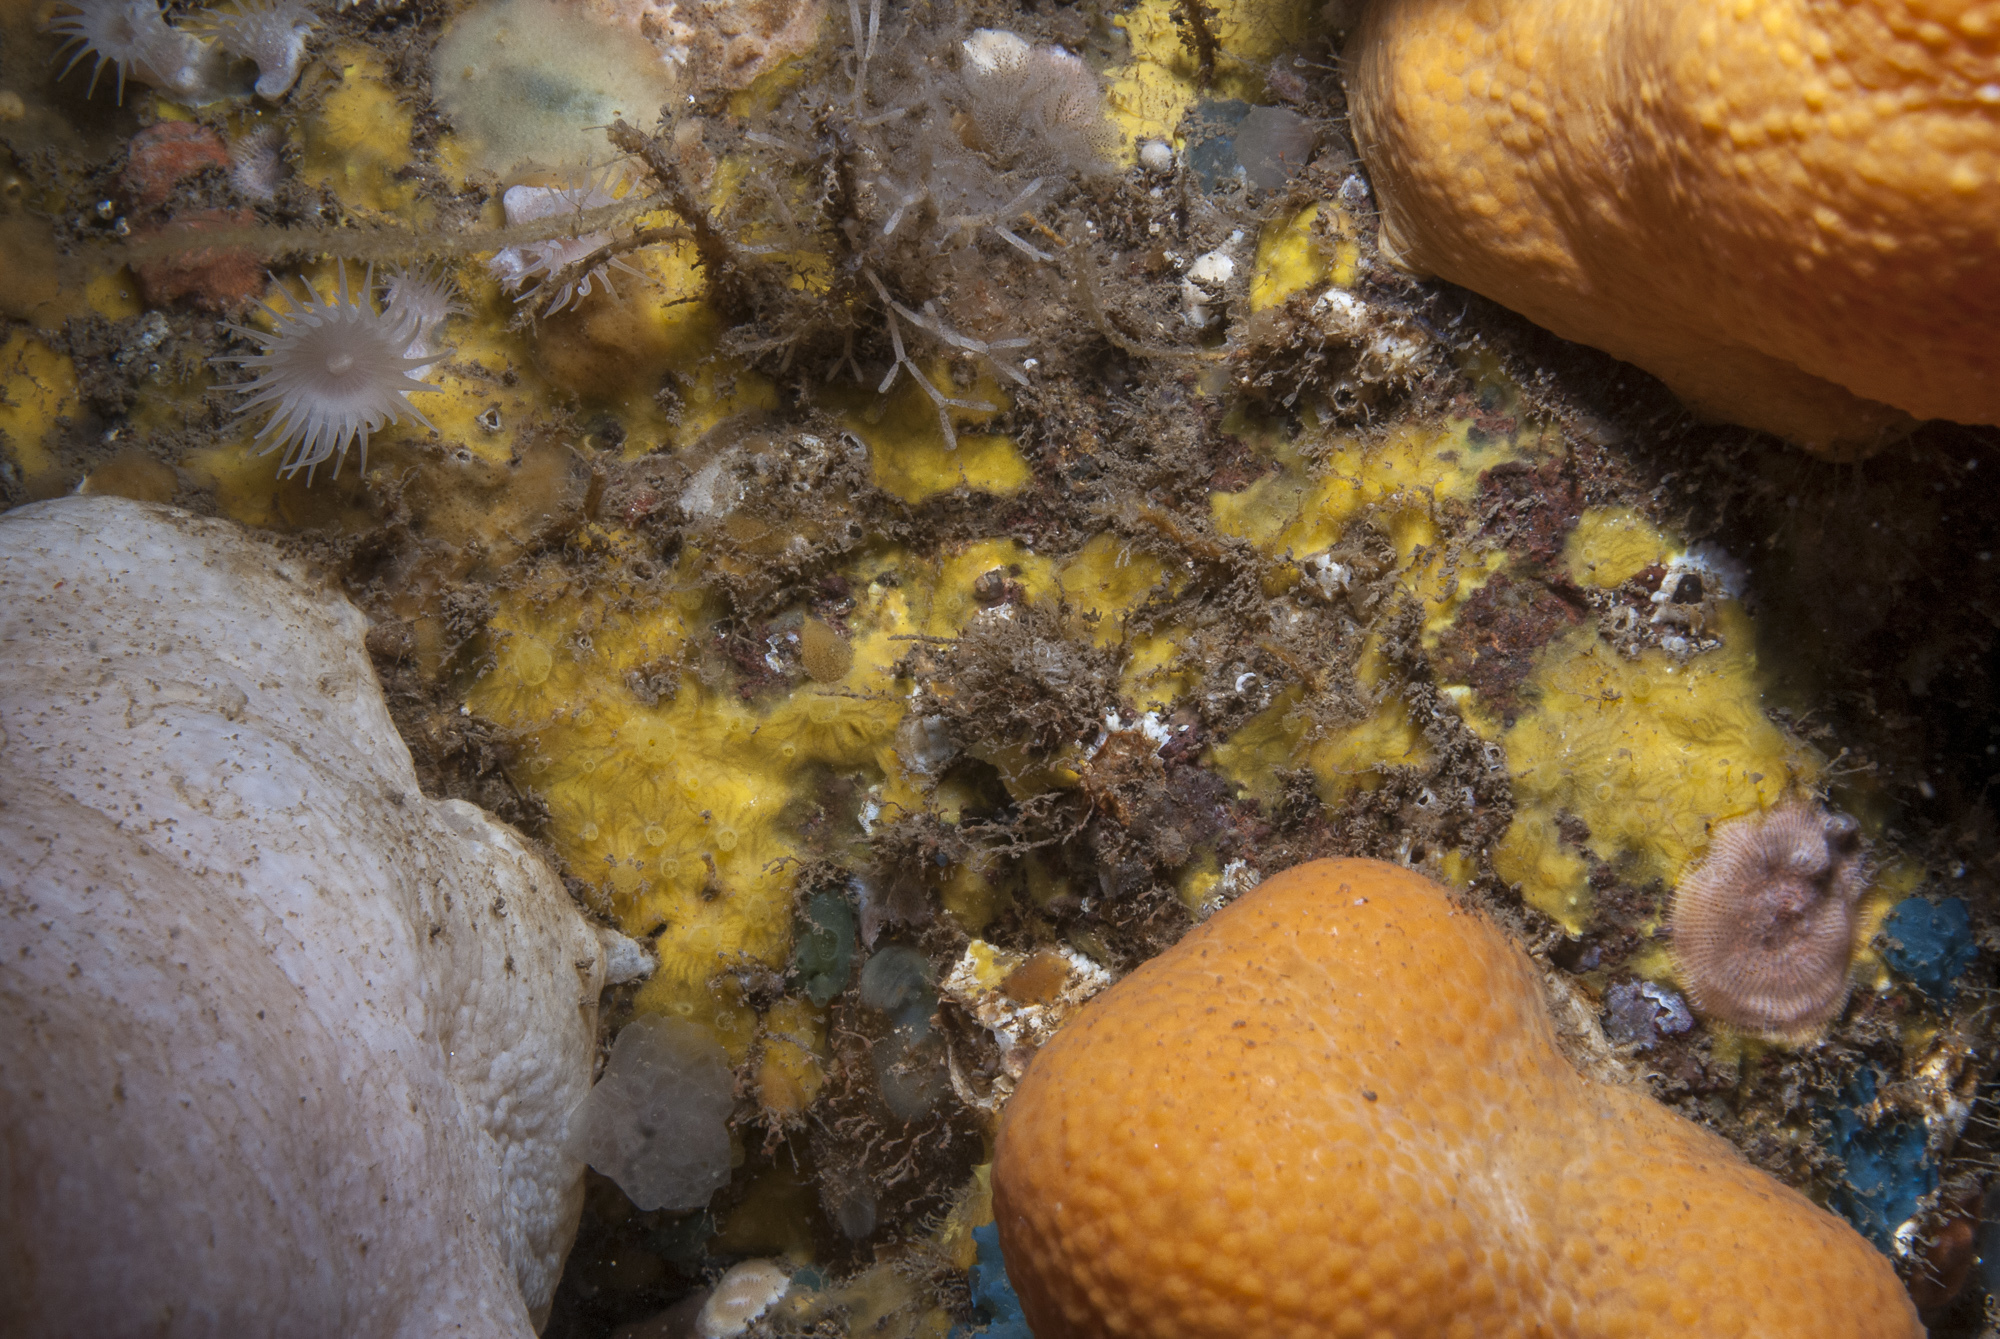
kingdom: Animalia
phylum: Porifera
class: Demospongiae
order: Poecilosclerida
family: Hymedesmiidae
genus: Hymedesmia
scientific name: Hymedesmia rathlinia
